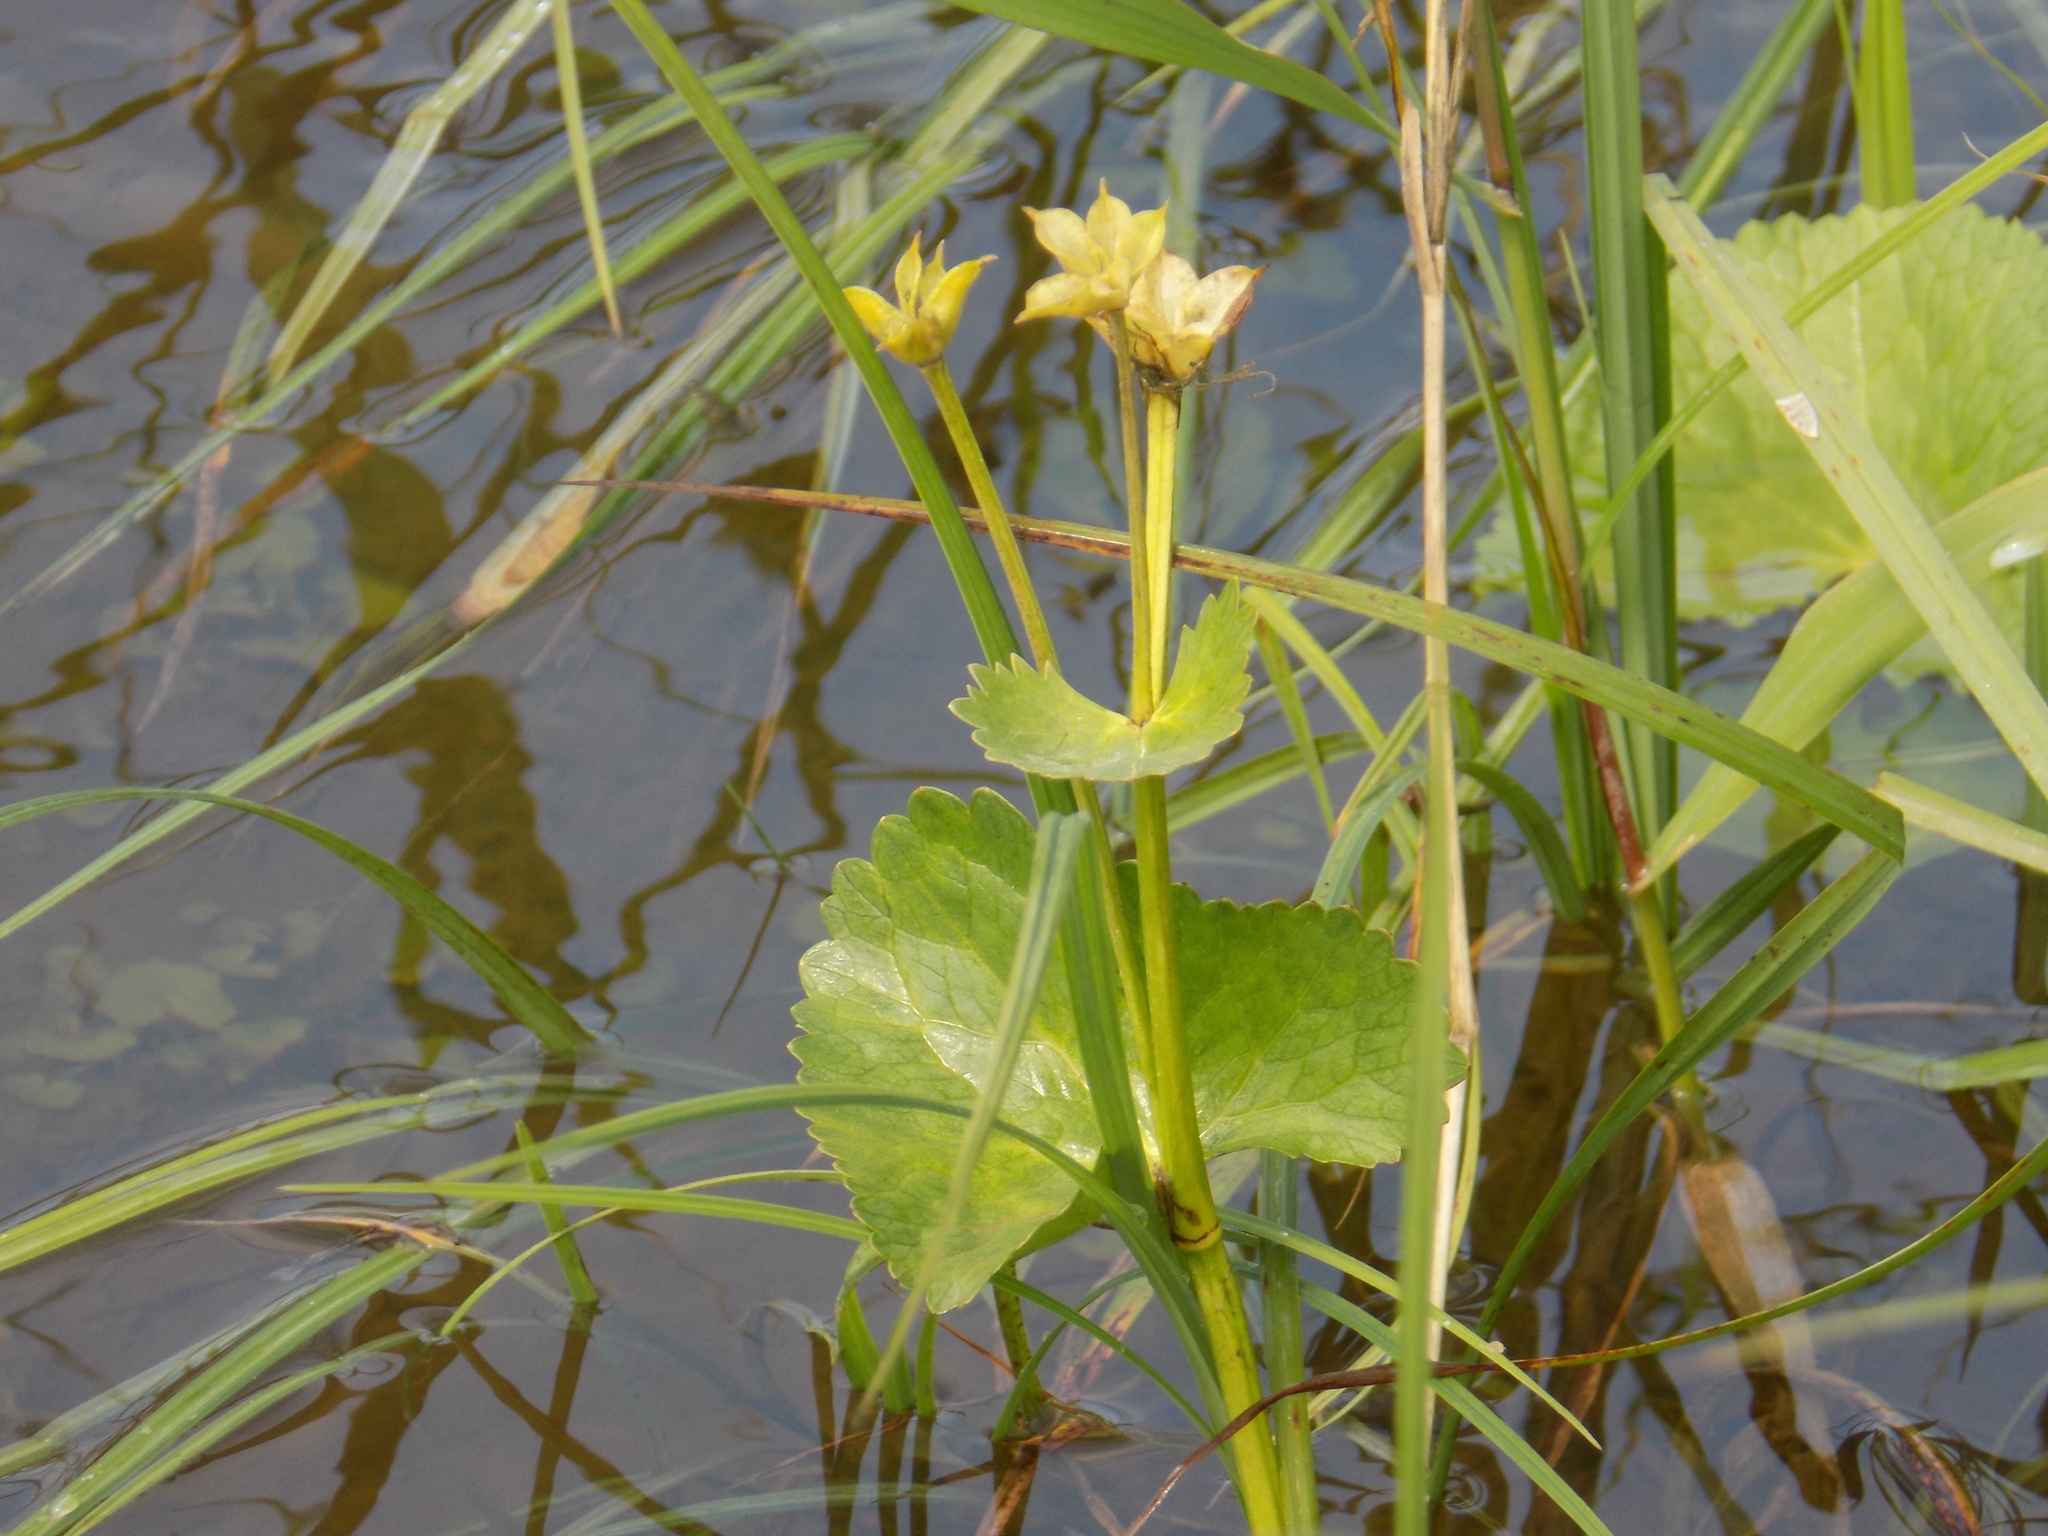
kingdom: Plantae
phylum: Tracheophyta
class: Magnoliopsida
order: Ranunculales
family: Ranunculaceae
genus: Caltha
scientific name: Caltha palustris
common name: Marsh marigold
